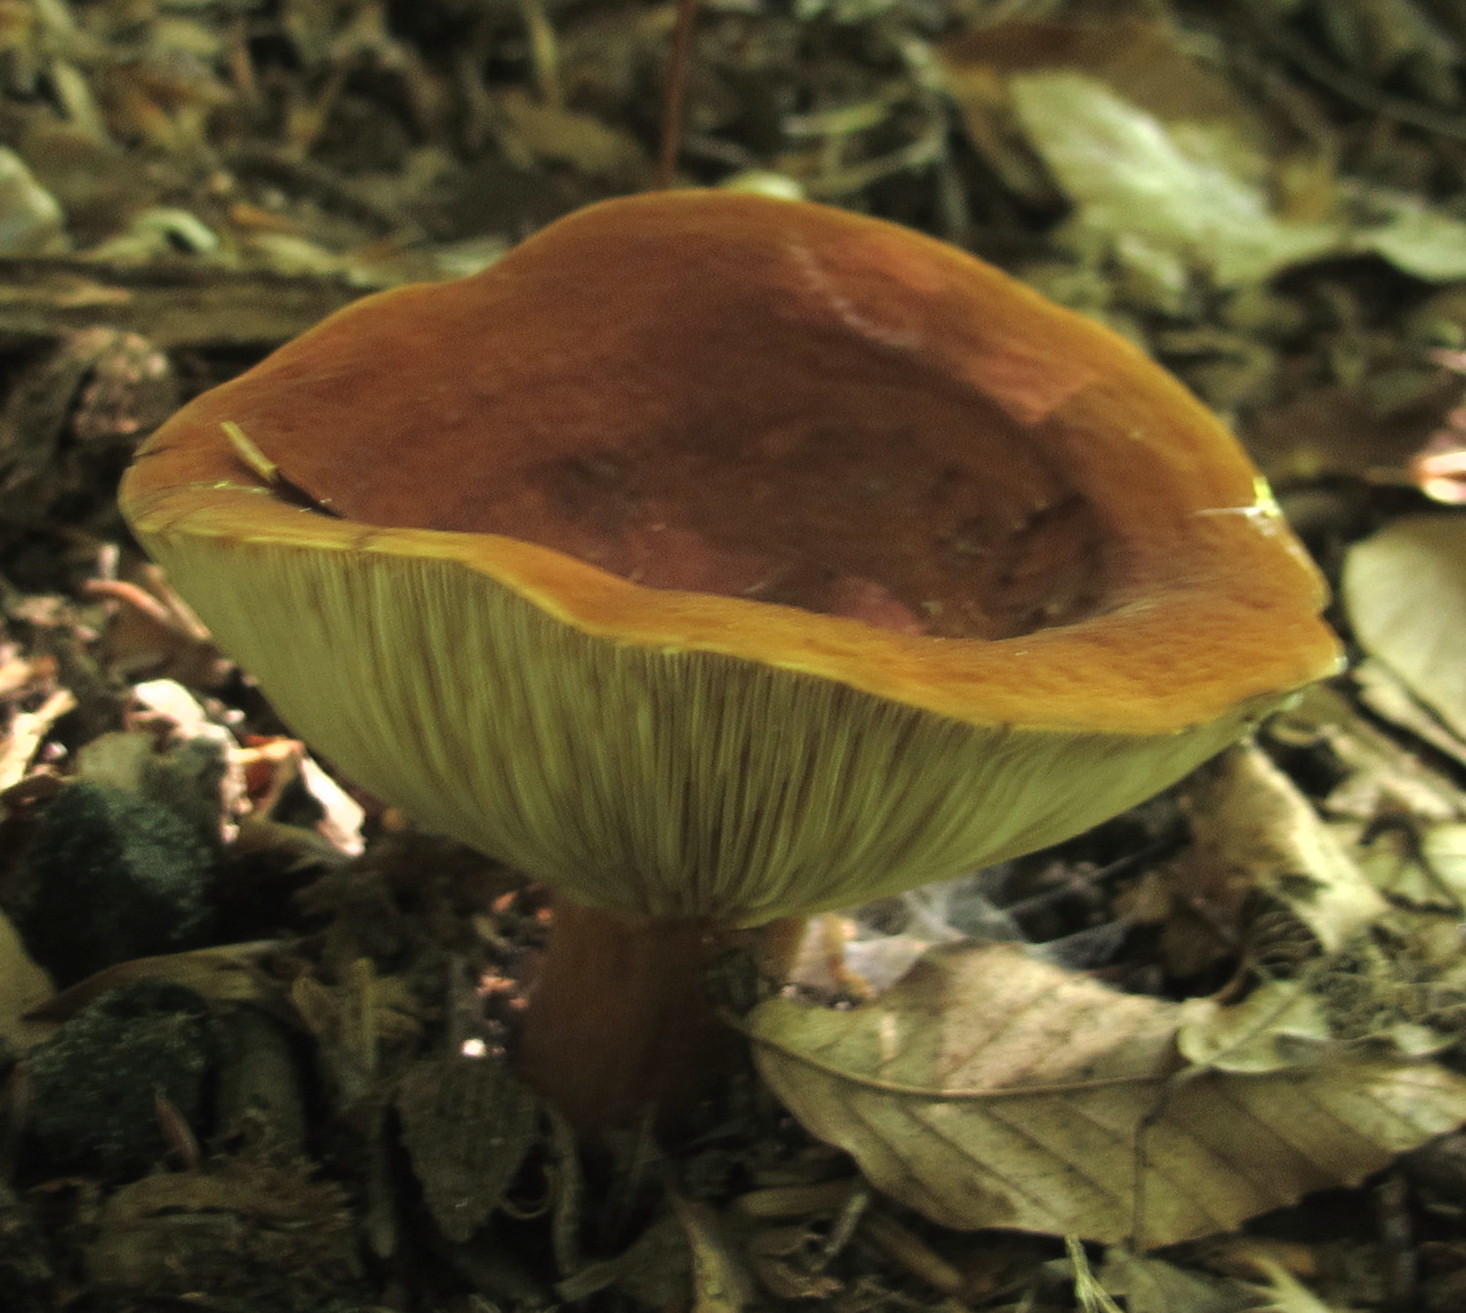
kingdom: Fungi
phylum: Basidiomycota
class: Agaricomycetes
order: Russulales
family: Russulaceae
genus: Lactifluus
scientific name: Lactifluus volemus
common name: Fishy milkcap
